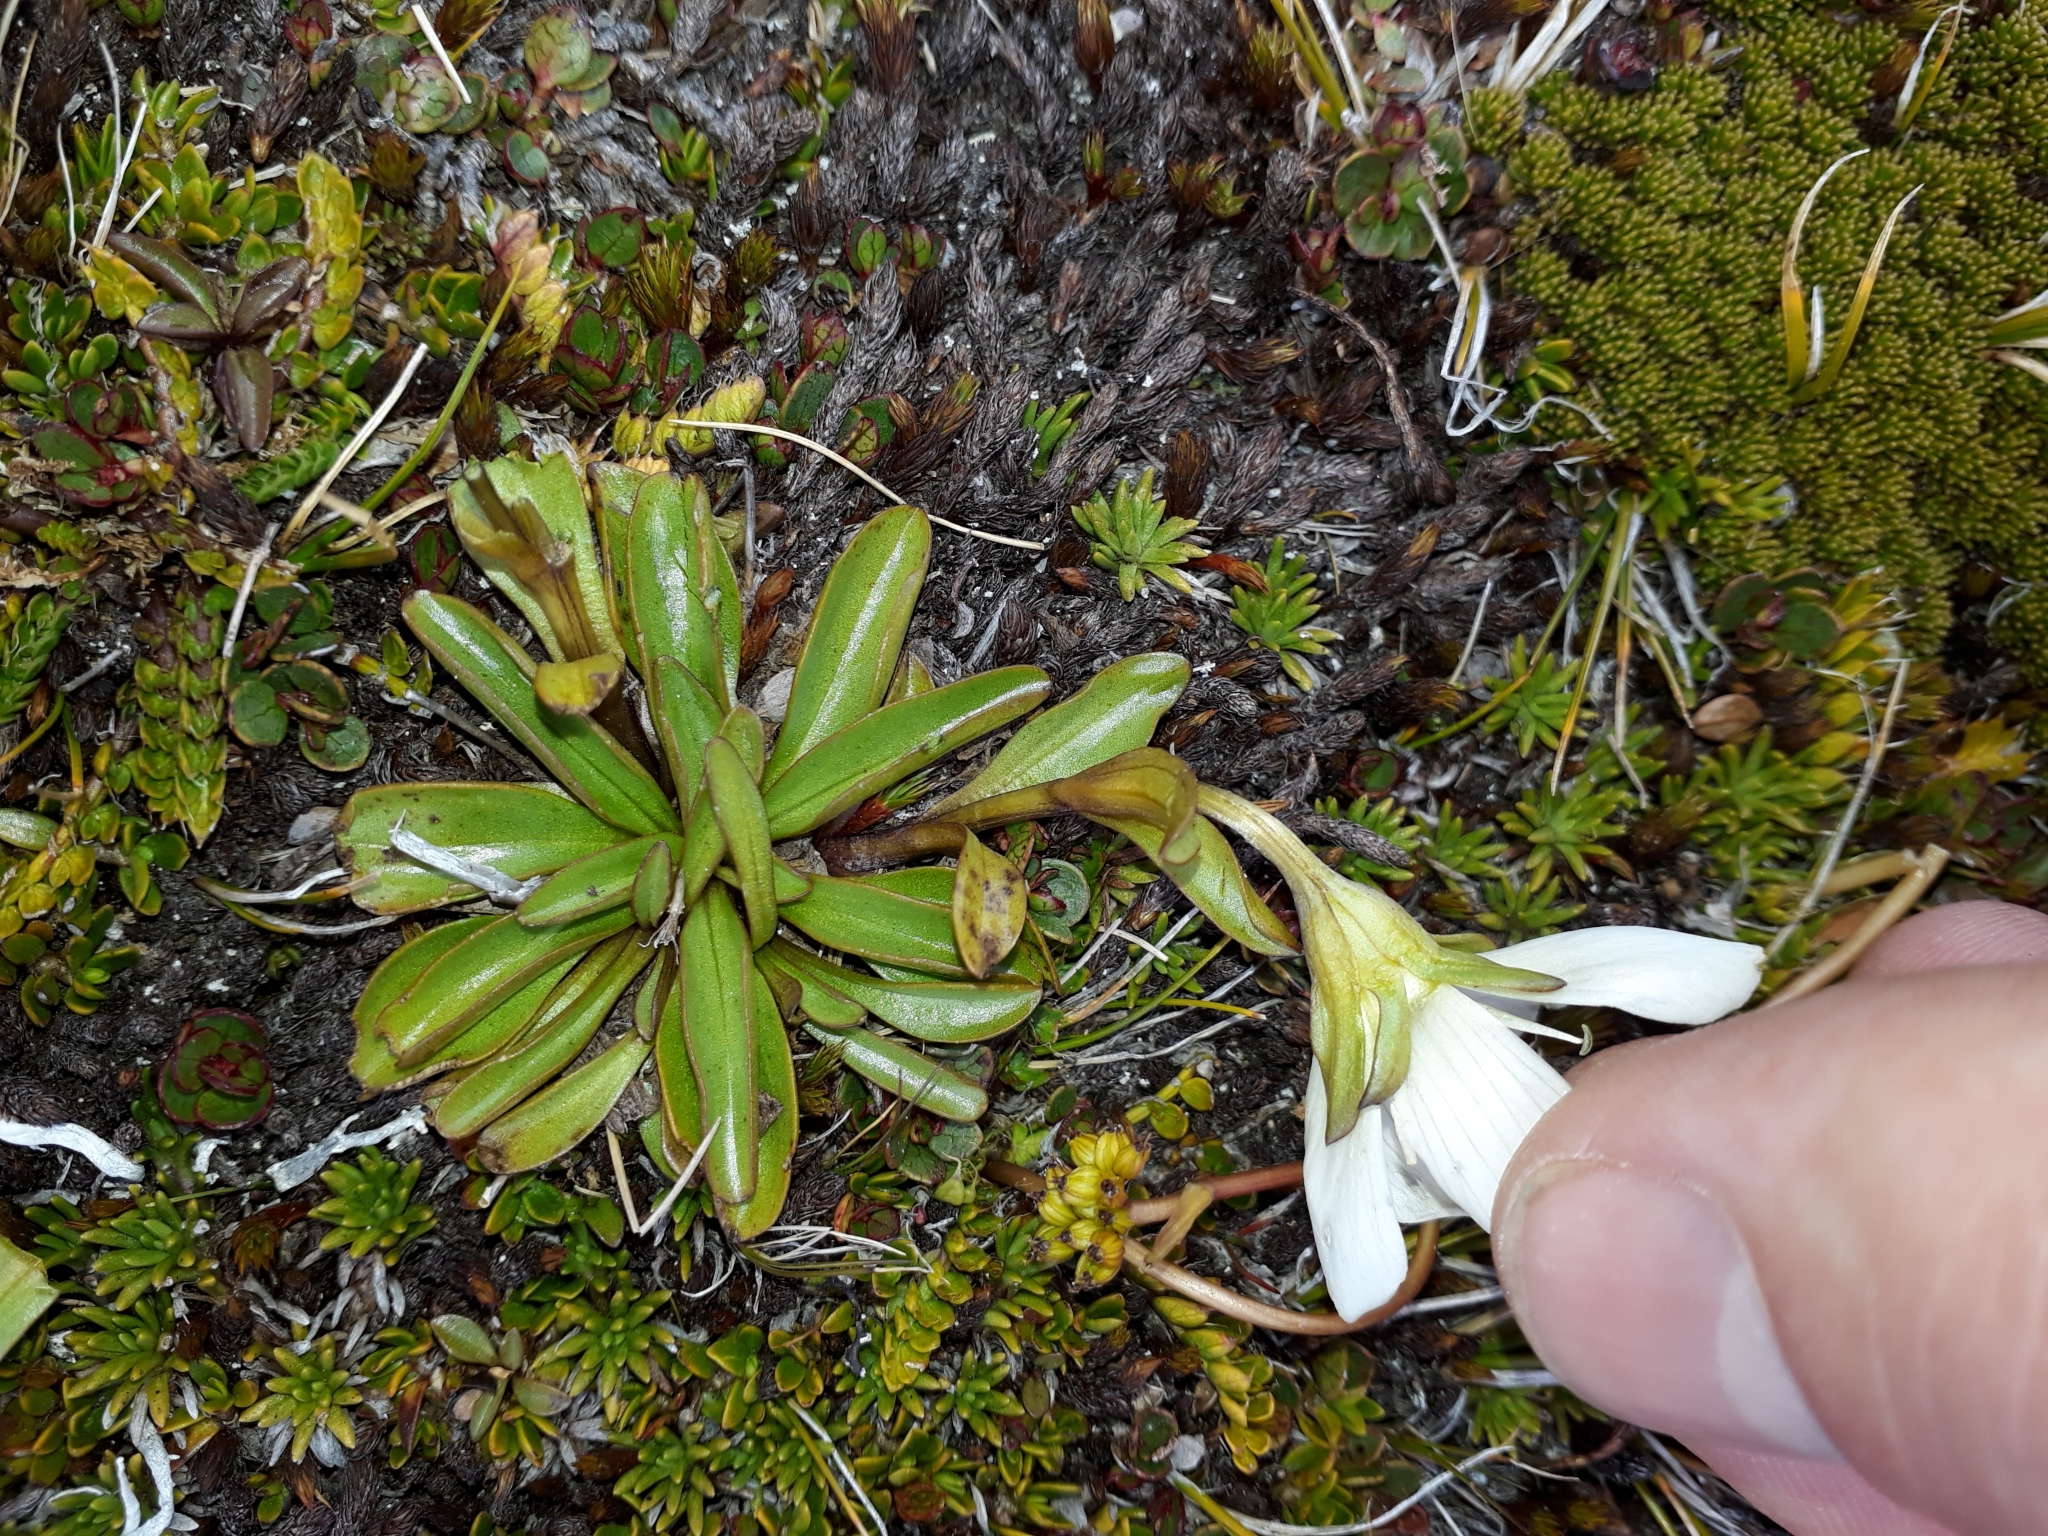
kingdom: Plantae
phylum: Tracheophyta
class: Magnoliopsida
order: Gentianales
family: Gentianaceae
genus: Gentianella
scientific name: Gentianella bellidifolia
